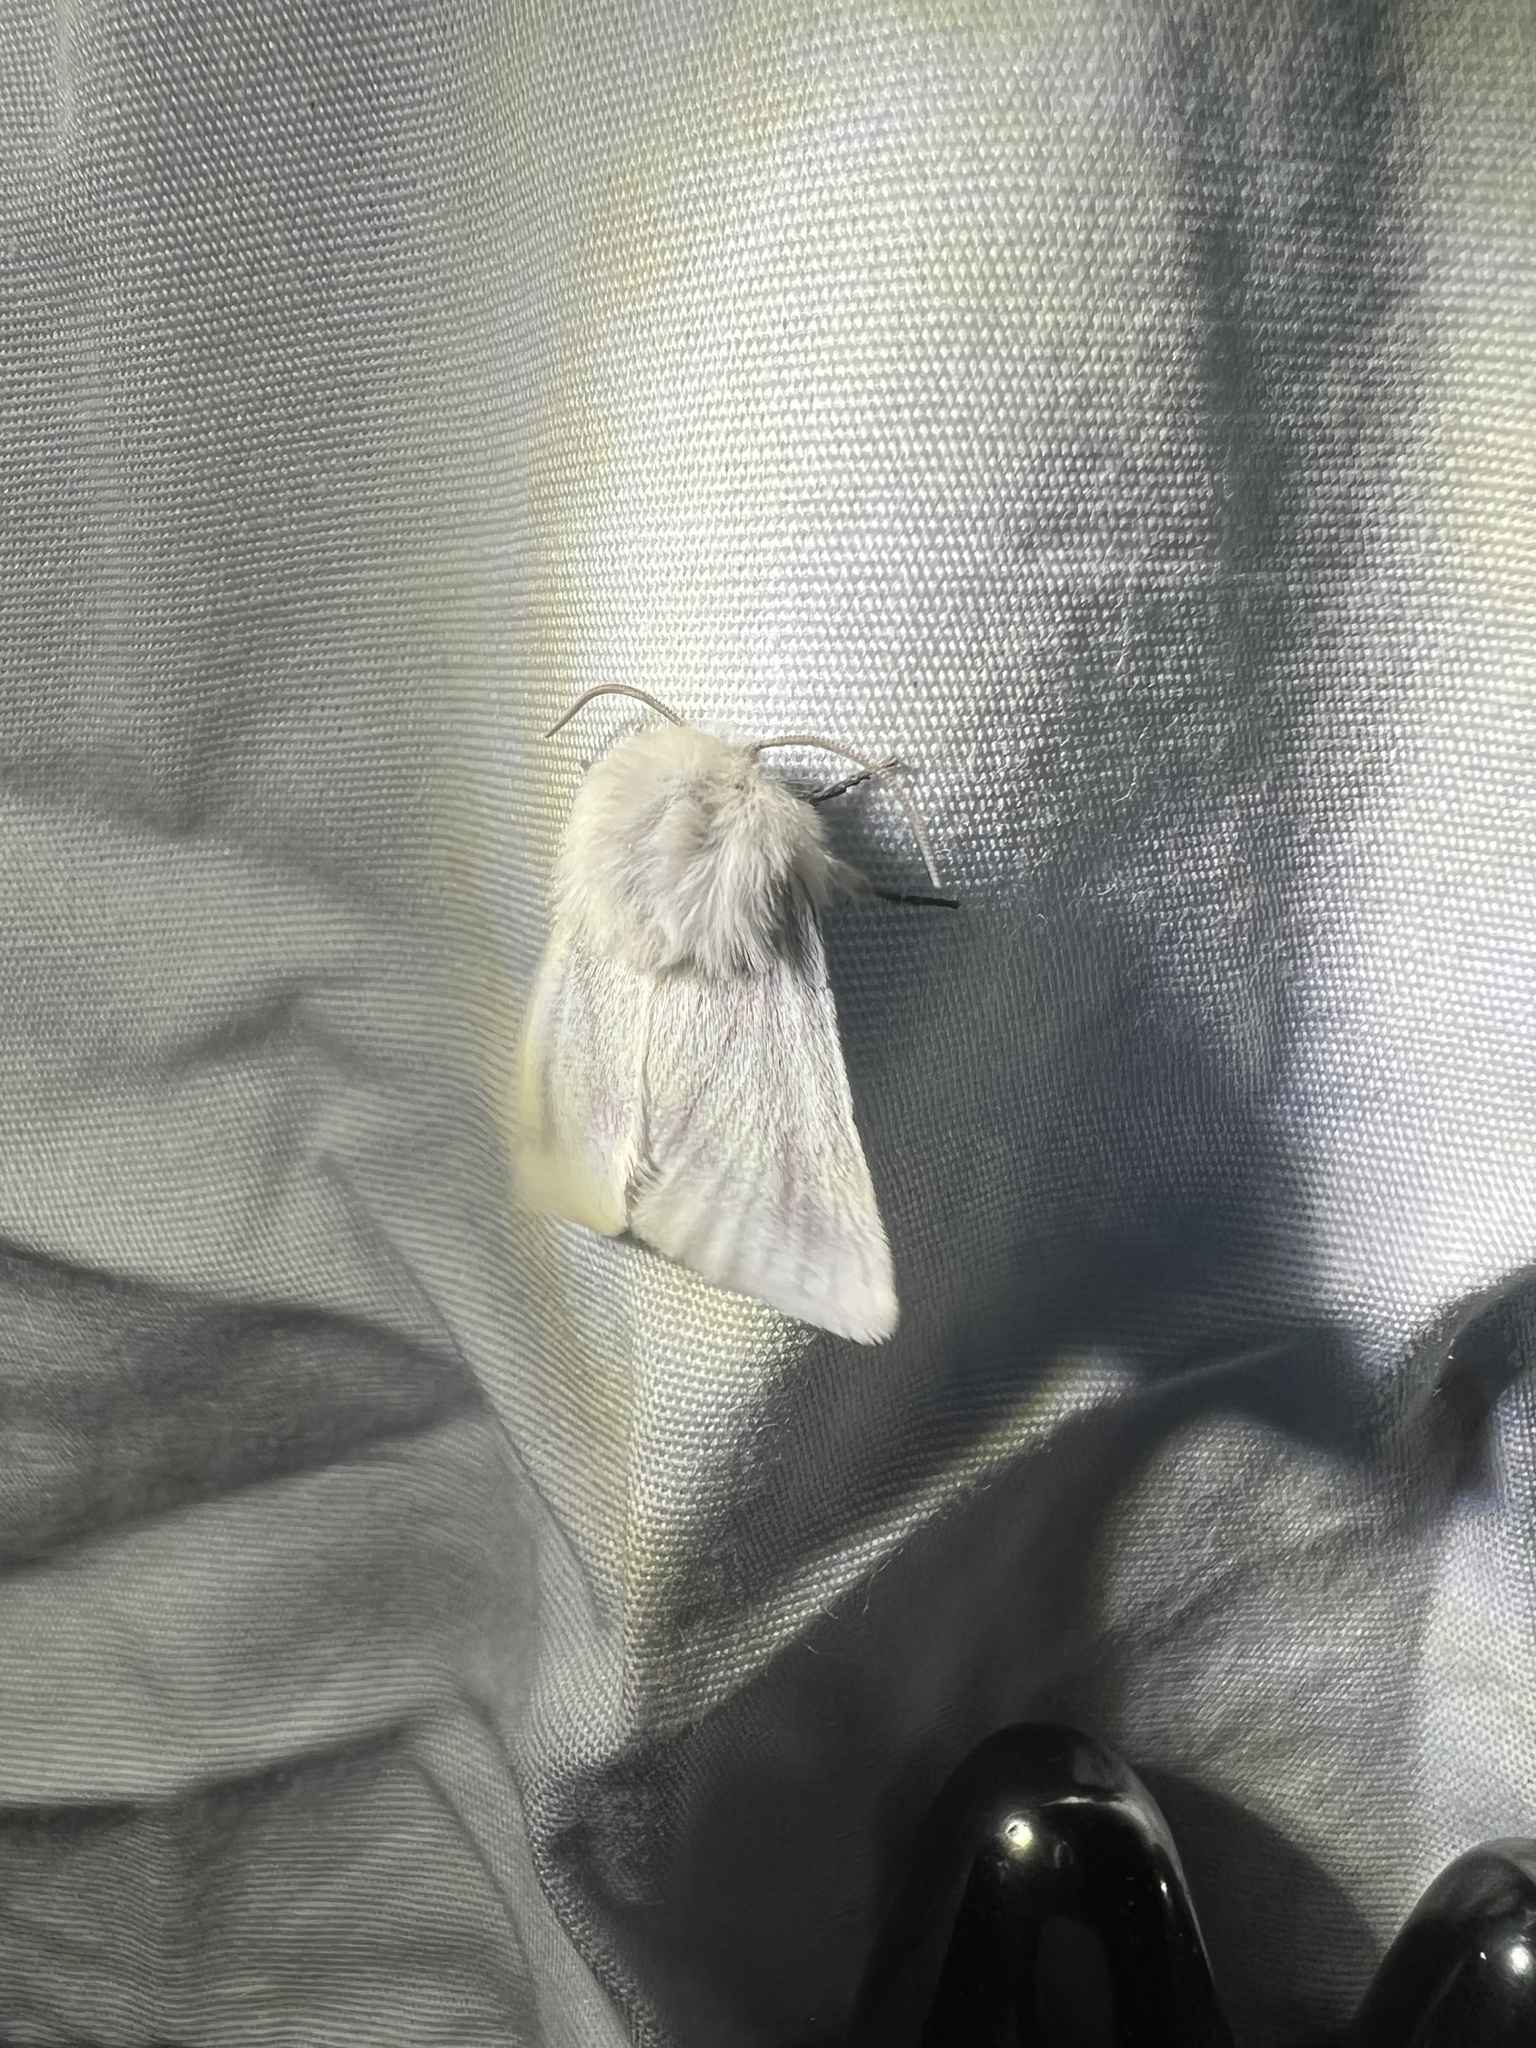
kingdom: Animalia
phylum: Arthropoda
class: Insecta
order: Lepidoptera
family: Noctuidae
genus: Schinia
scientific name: Schinia snowi
